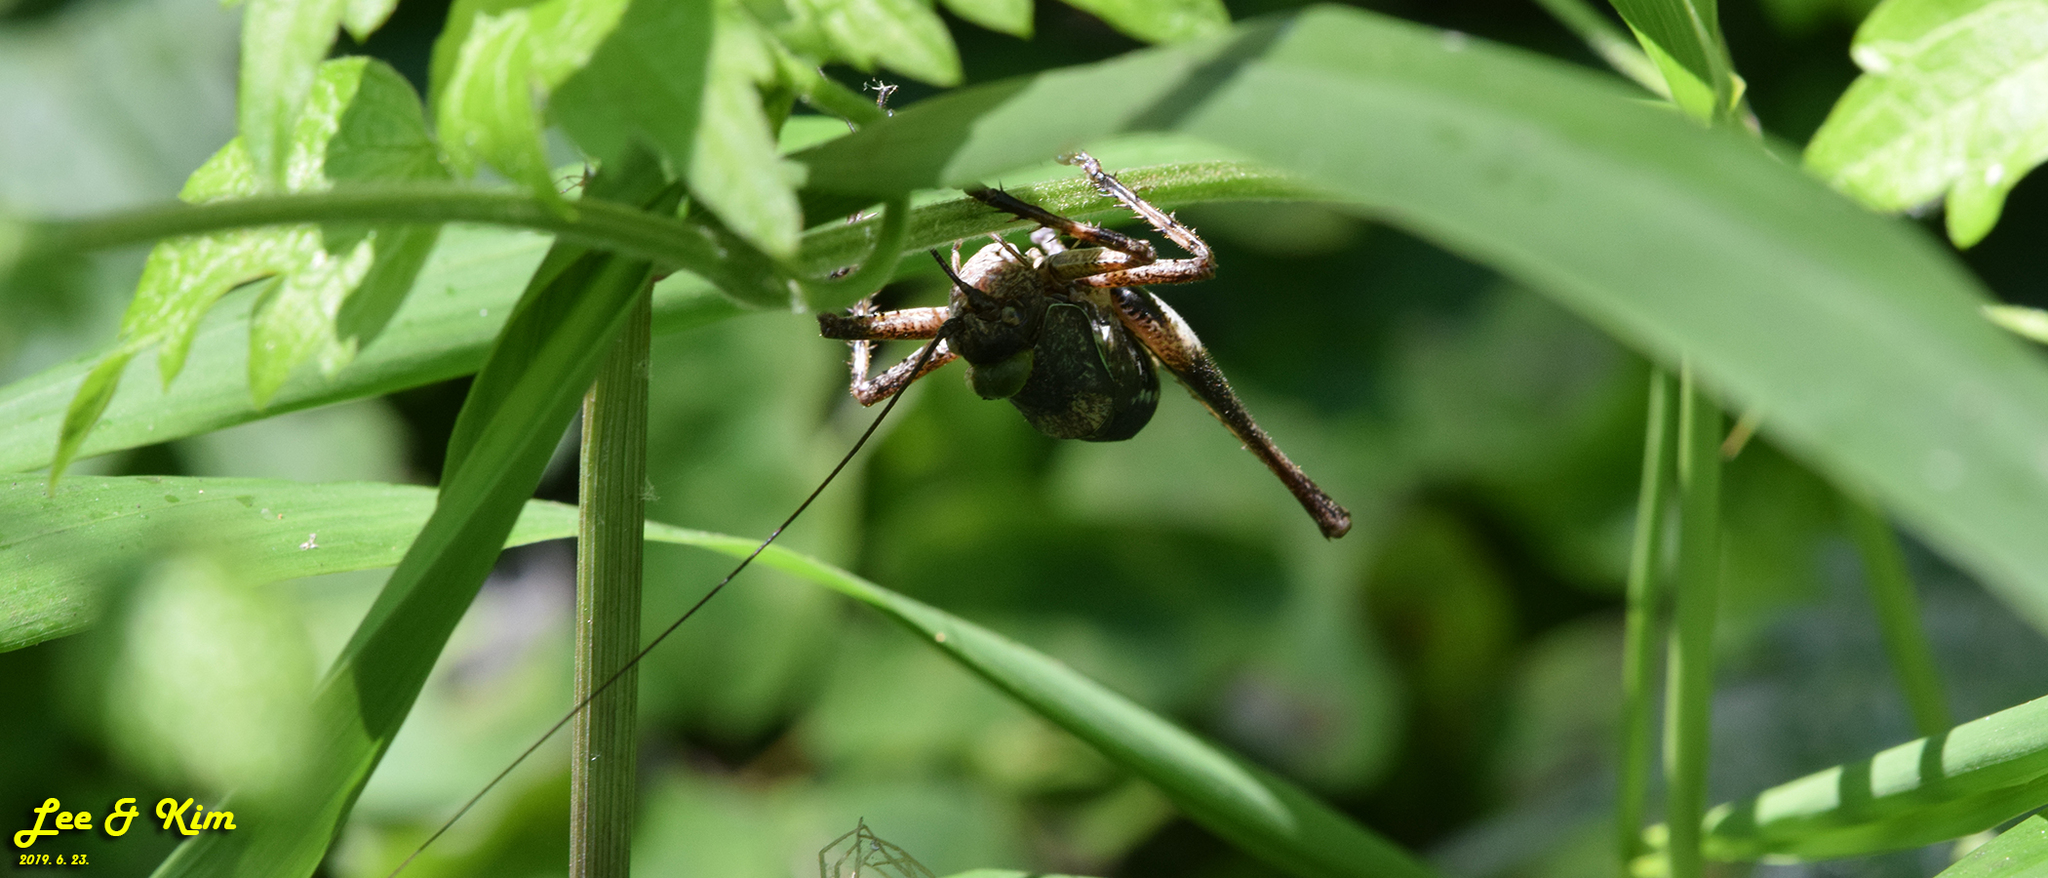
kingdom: Animalia
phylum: Arthropoda
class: Insecta
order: Orthoptera
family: Tettigoniidae
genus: Paratlanticus
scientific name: Paratlanticus ussuriensis
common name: Ussur brown katydid
